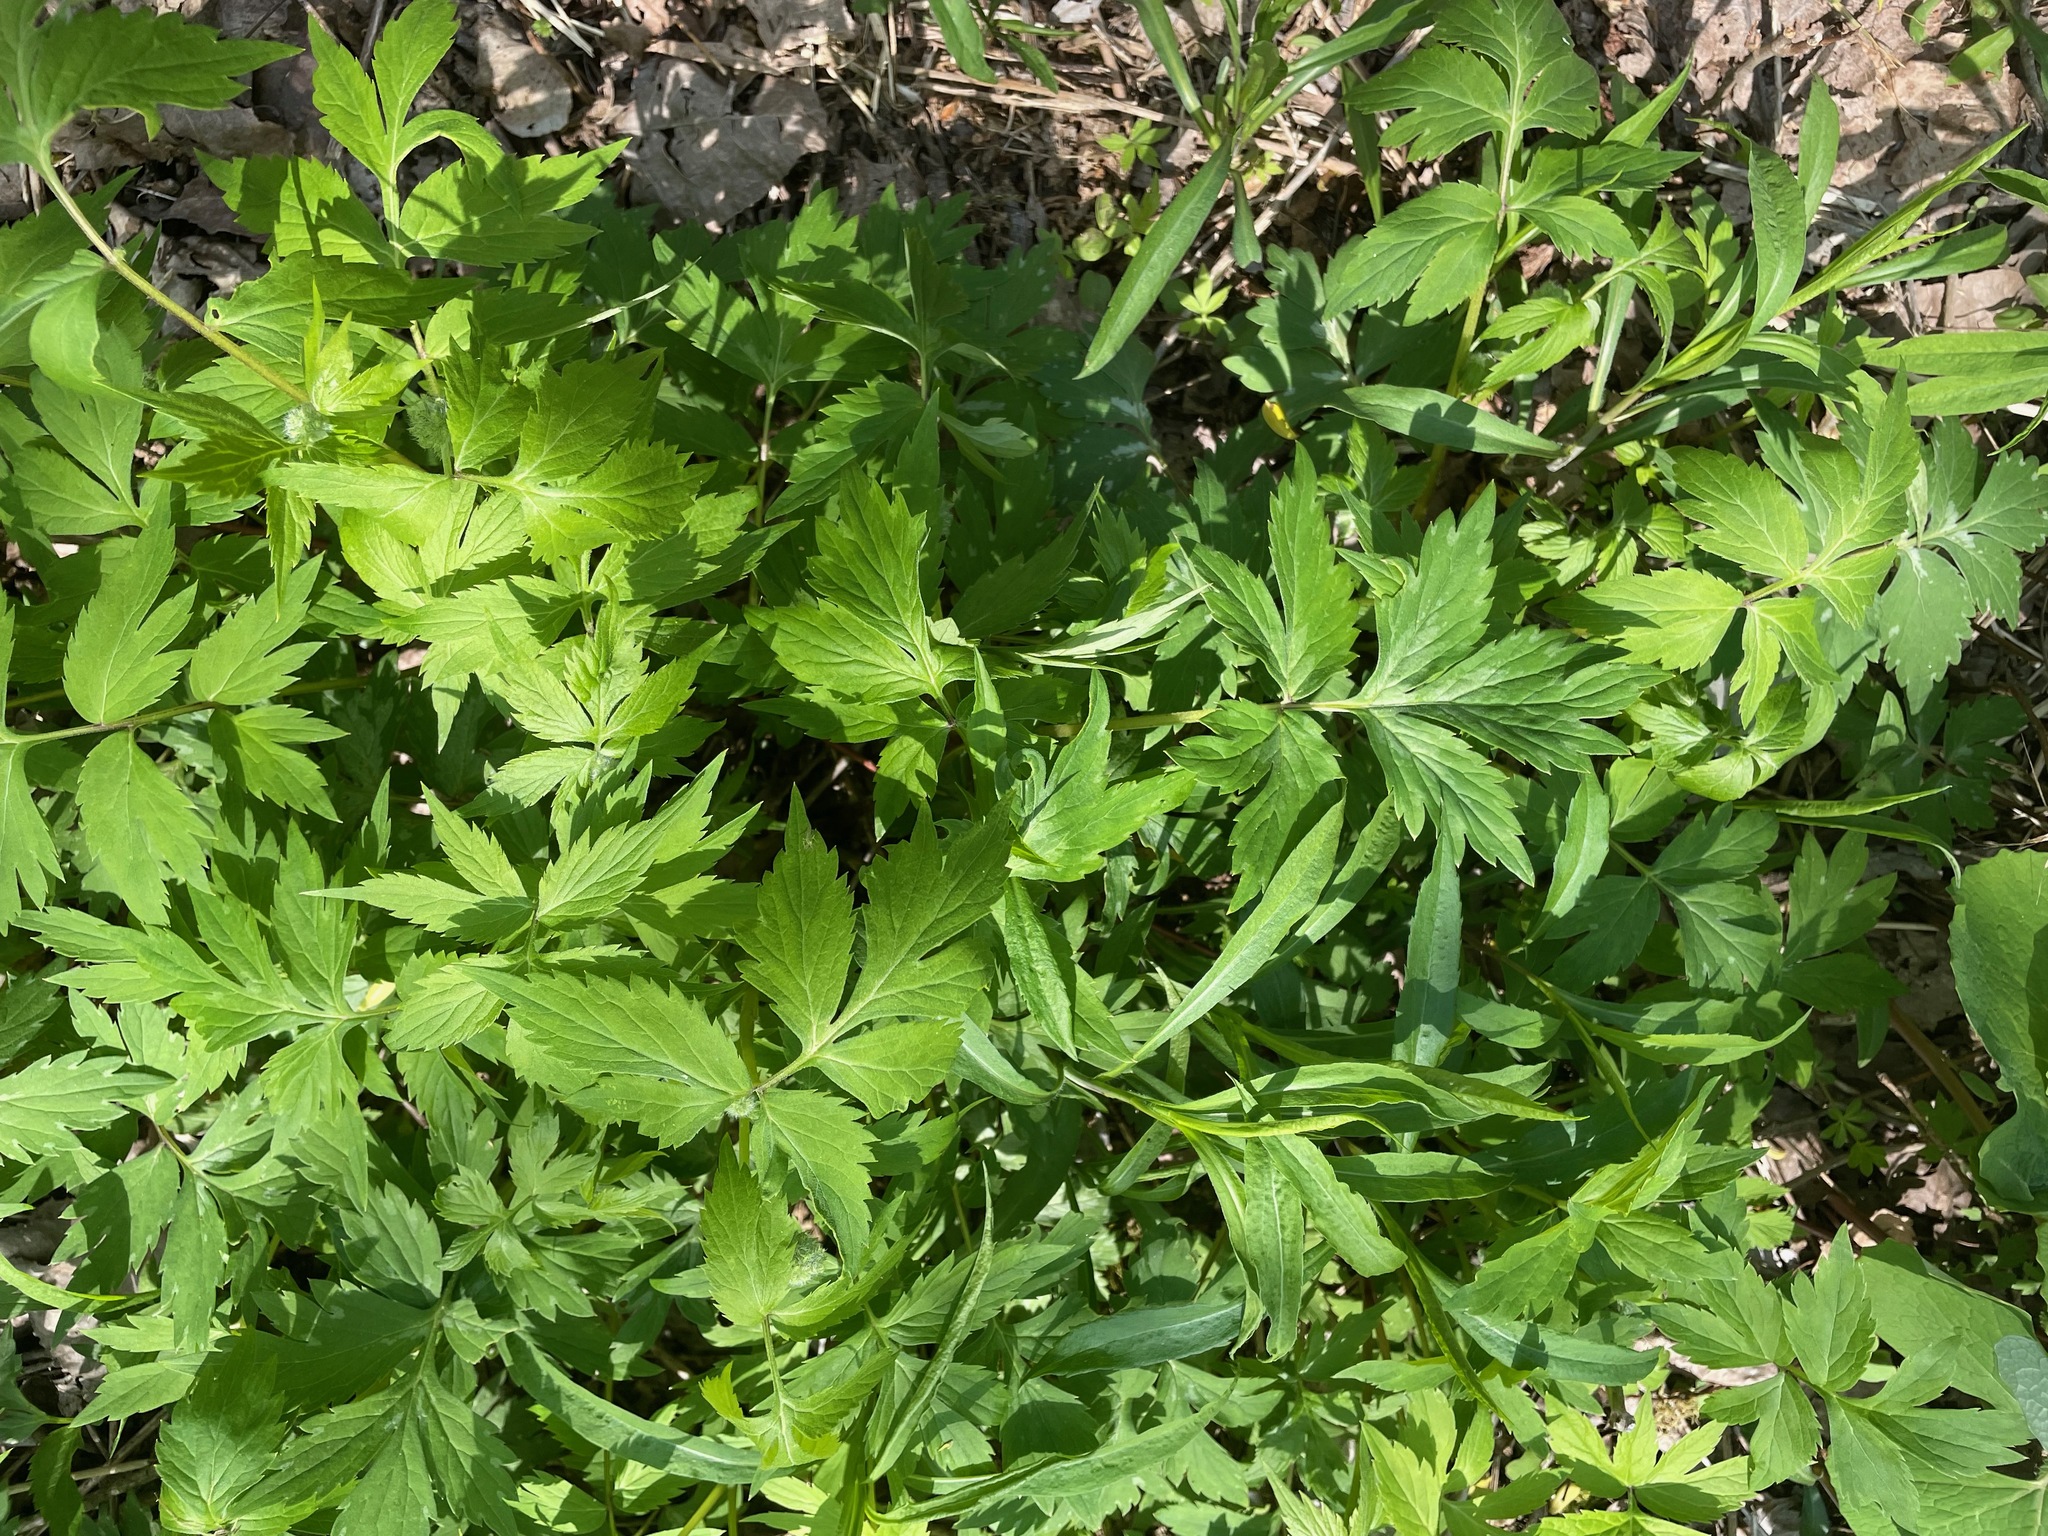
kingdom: Plantae
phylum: Tracheophyta
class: Magnoliopsida
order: Boraginales
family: Hydrophyllaceae
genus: Hydrophyllum
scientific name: Hydrophyllum virginianum
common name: Virginia waterleaf
